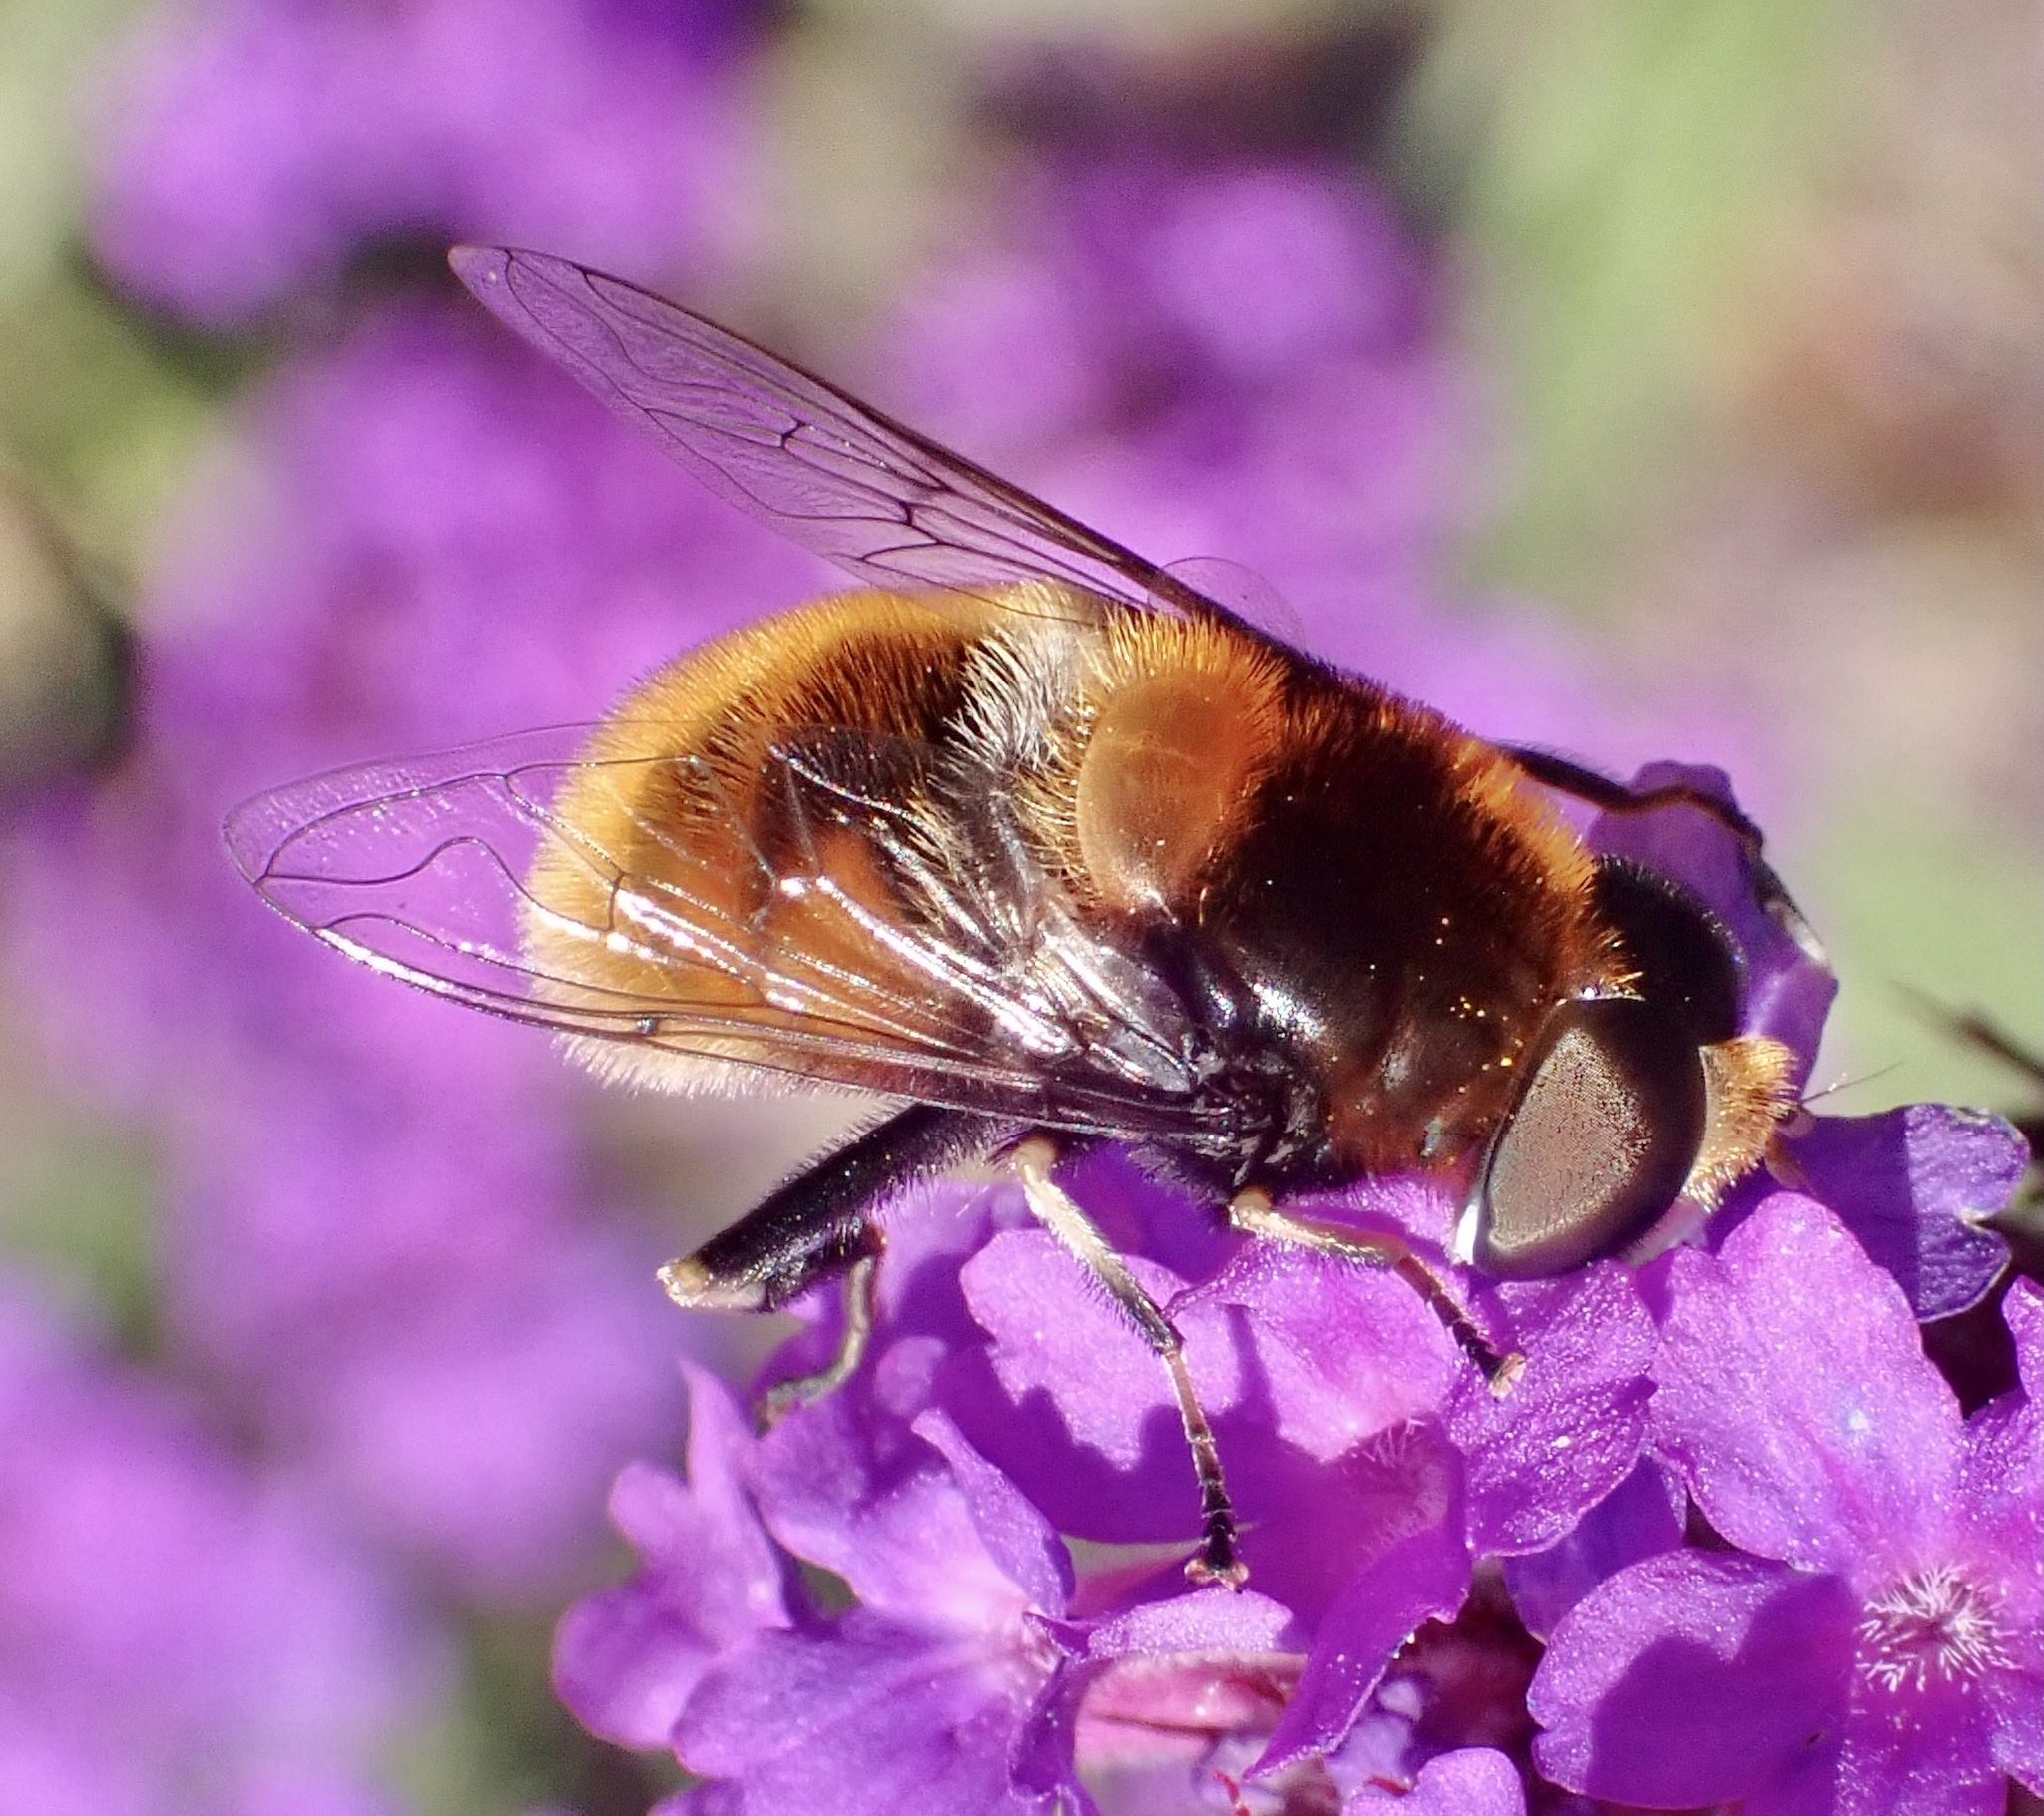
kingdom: Animalia
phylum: Arthropoda
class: Insecta
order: Diptera
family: Syrphidae
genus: Eristalis
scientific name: Eristalis intricaria
